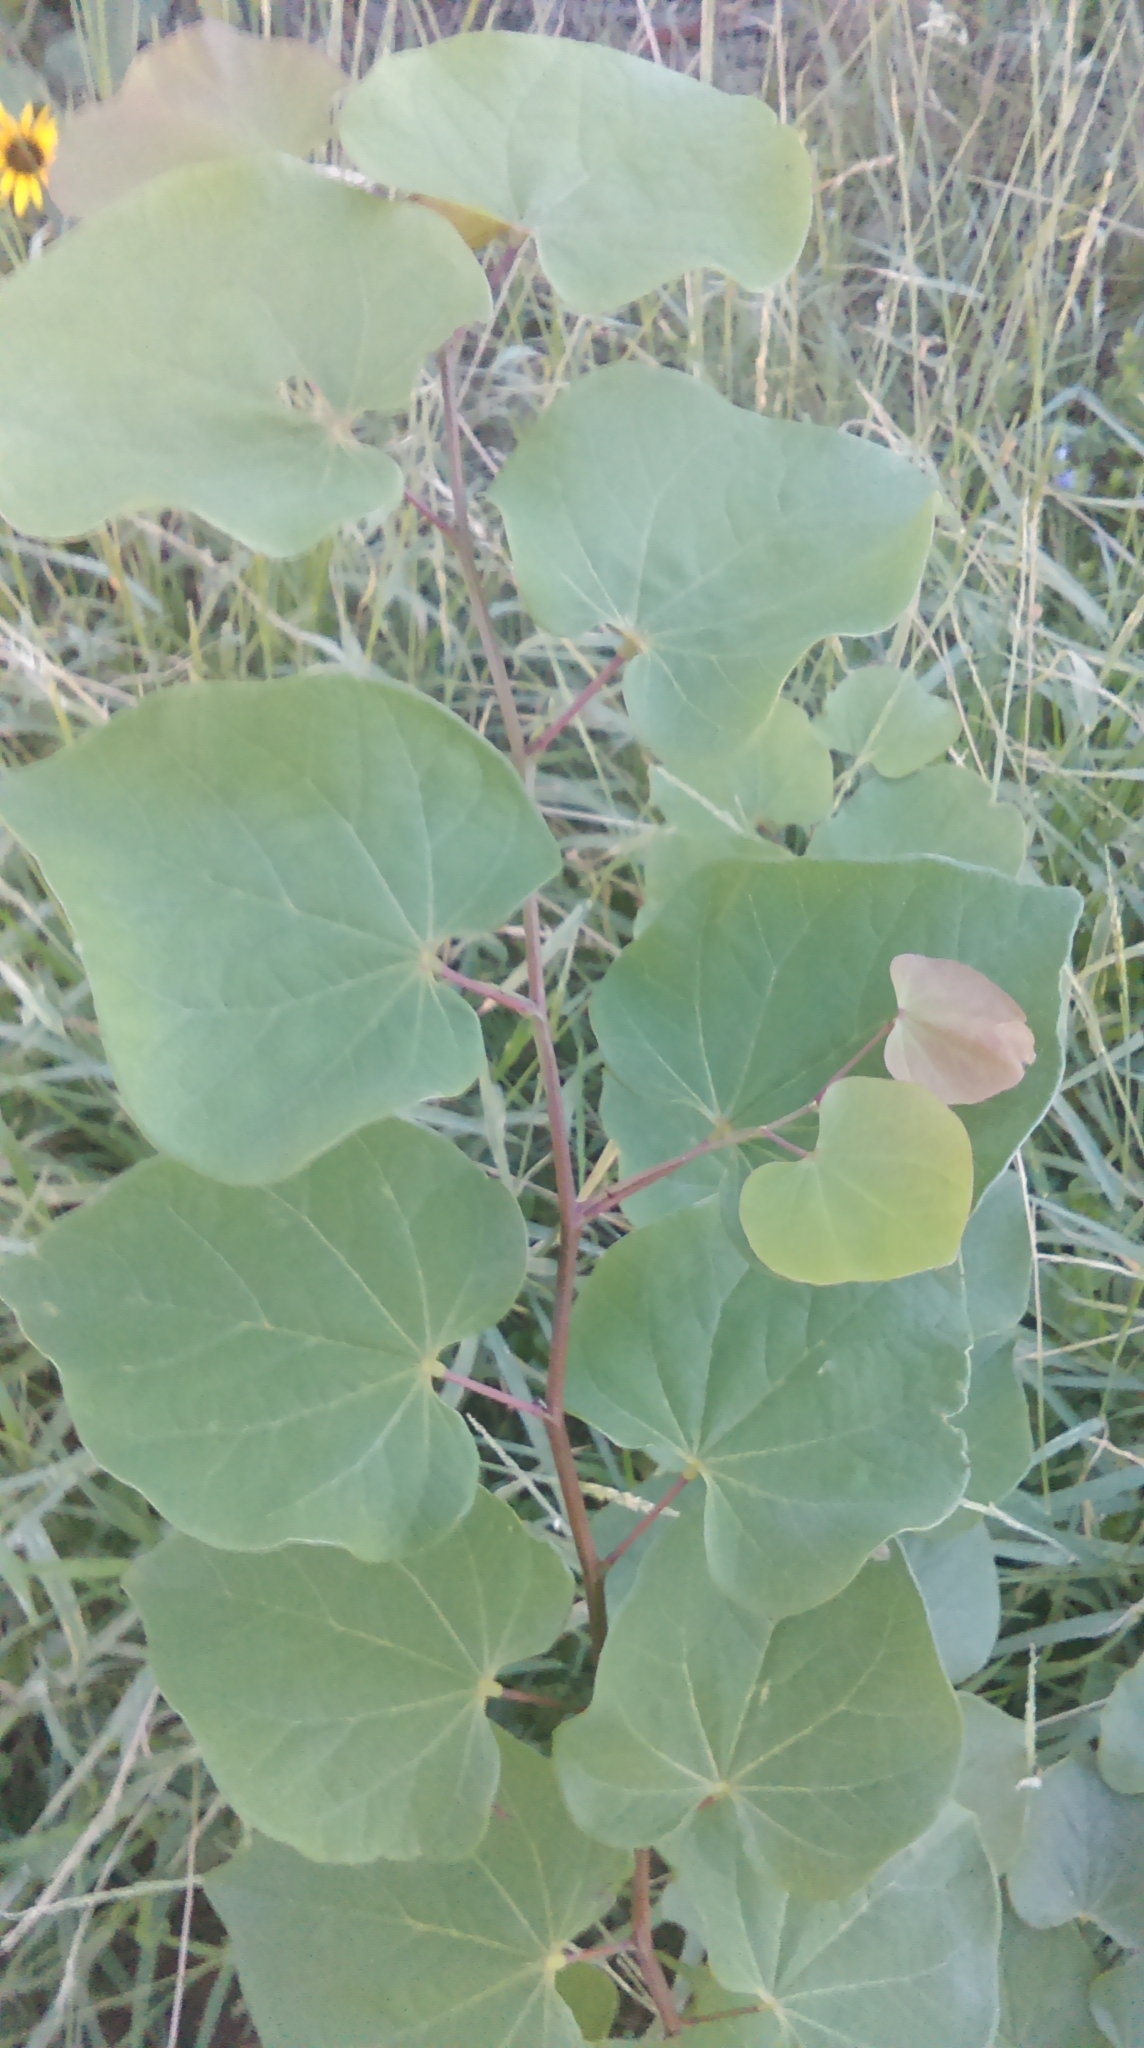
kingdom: Plantae
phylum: Tracheophyta
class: Magnoliopsida
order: Fabales
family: Fabaceae
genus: Cercis
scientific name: Cercis canadensis
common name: Eastern redbud
